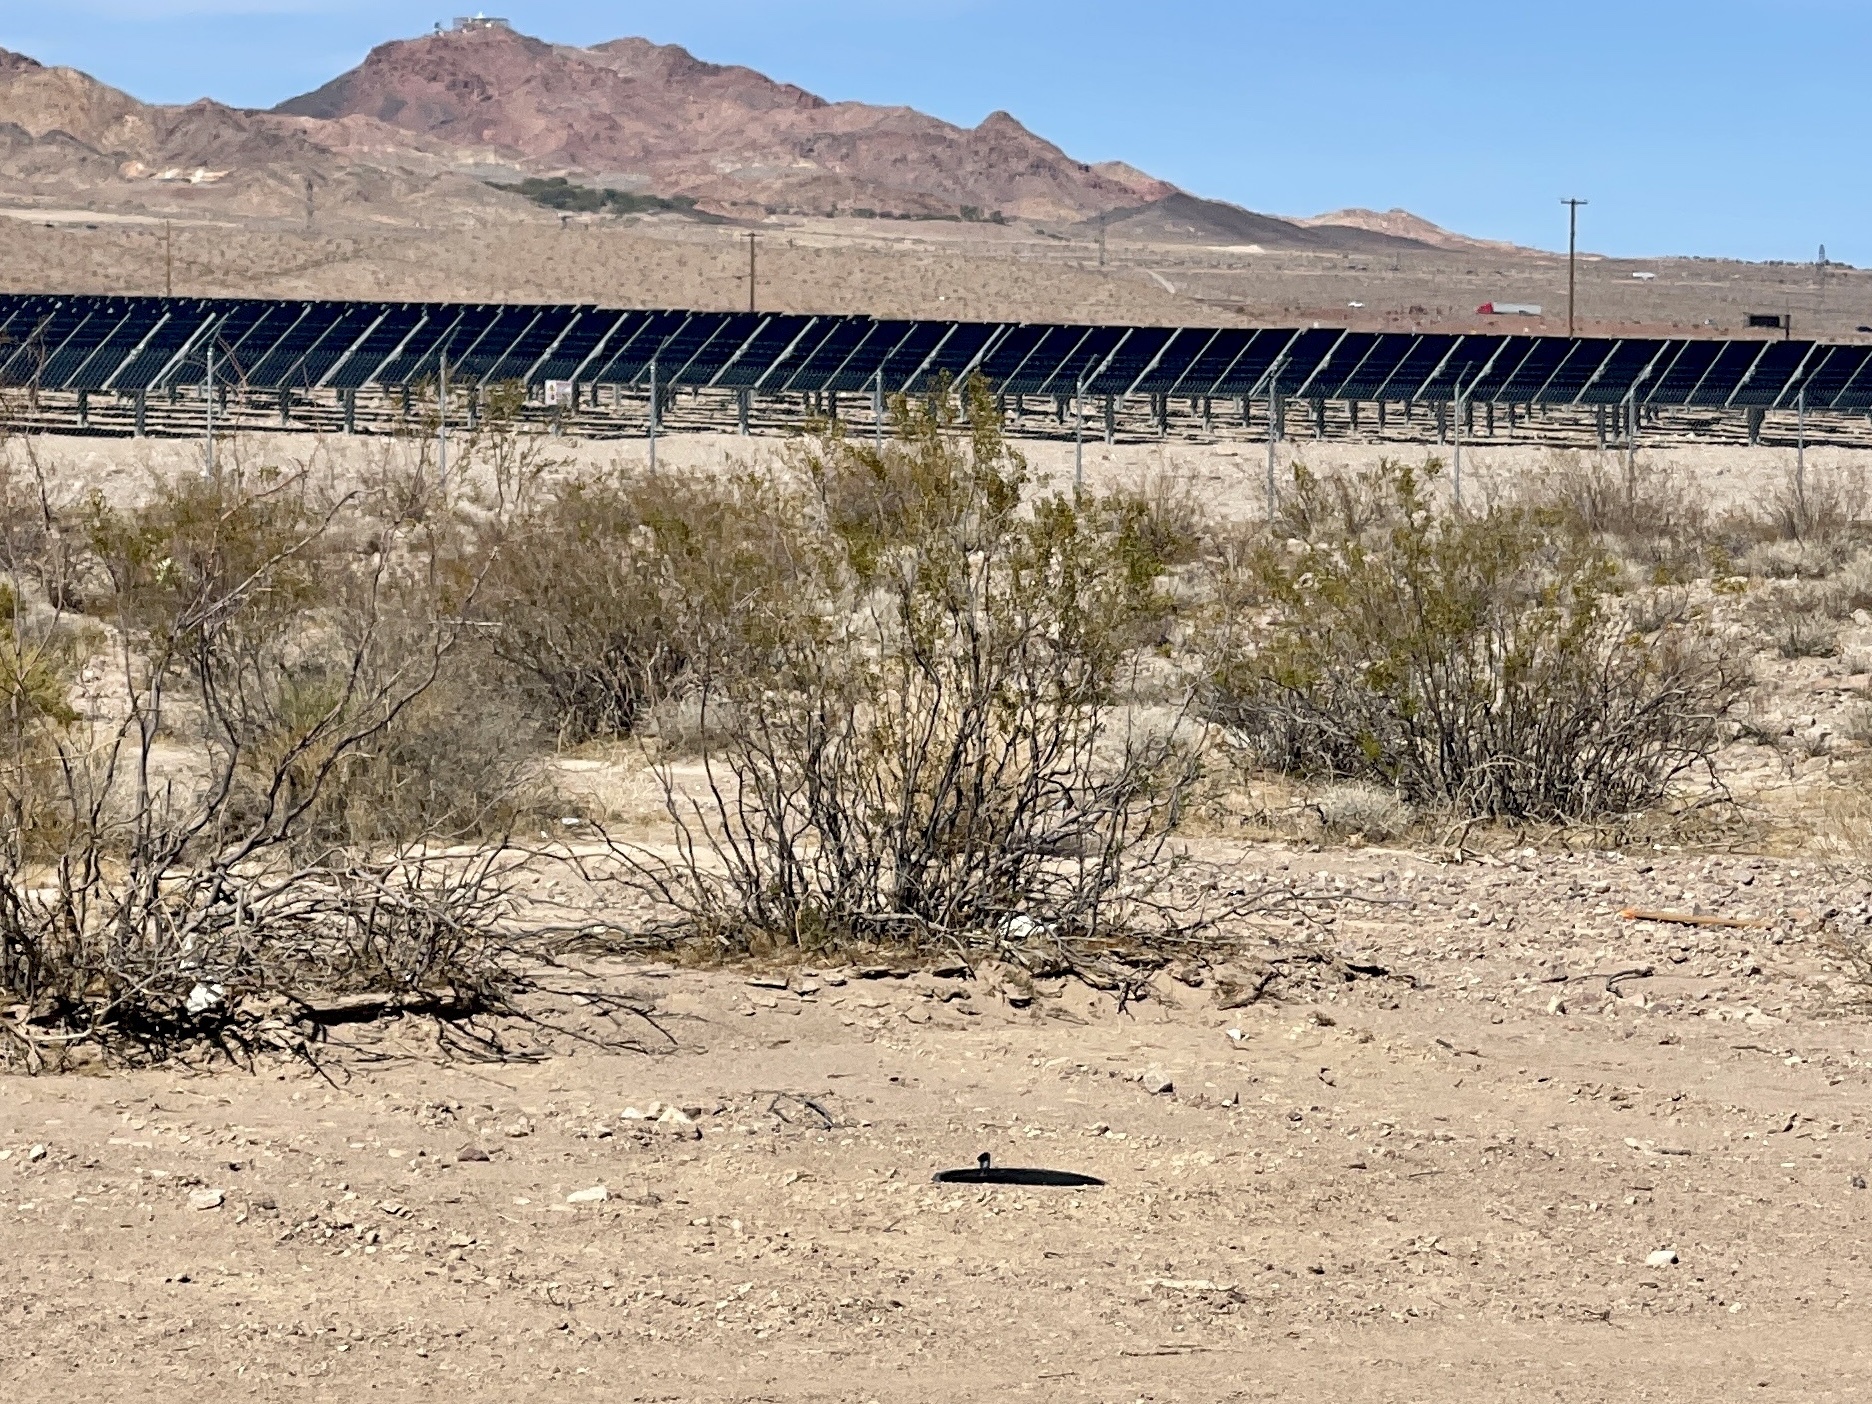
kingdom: Plantae
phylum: Tracheophyta
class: Magnoliopsida
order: Zygophyllales
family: Zygophyllaceae
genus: Larrea
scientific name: Larrea tridentata
